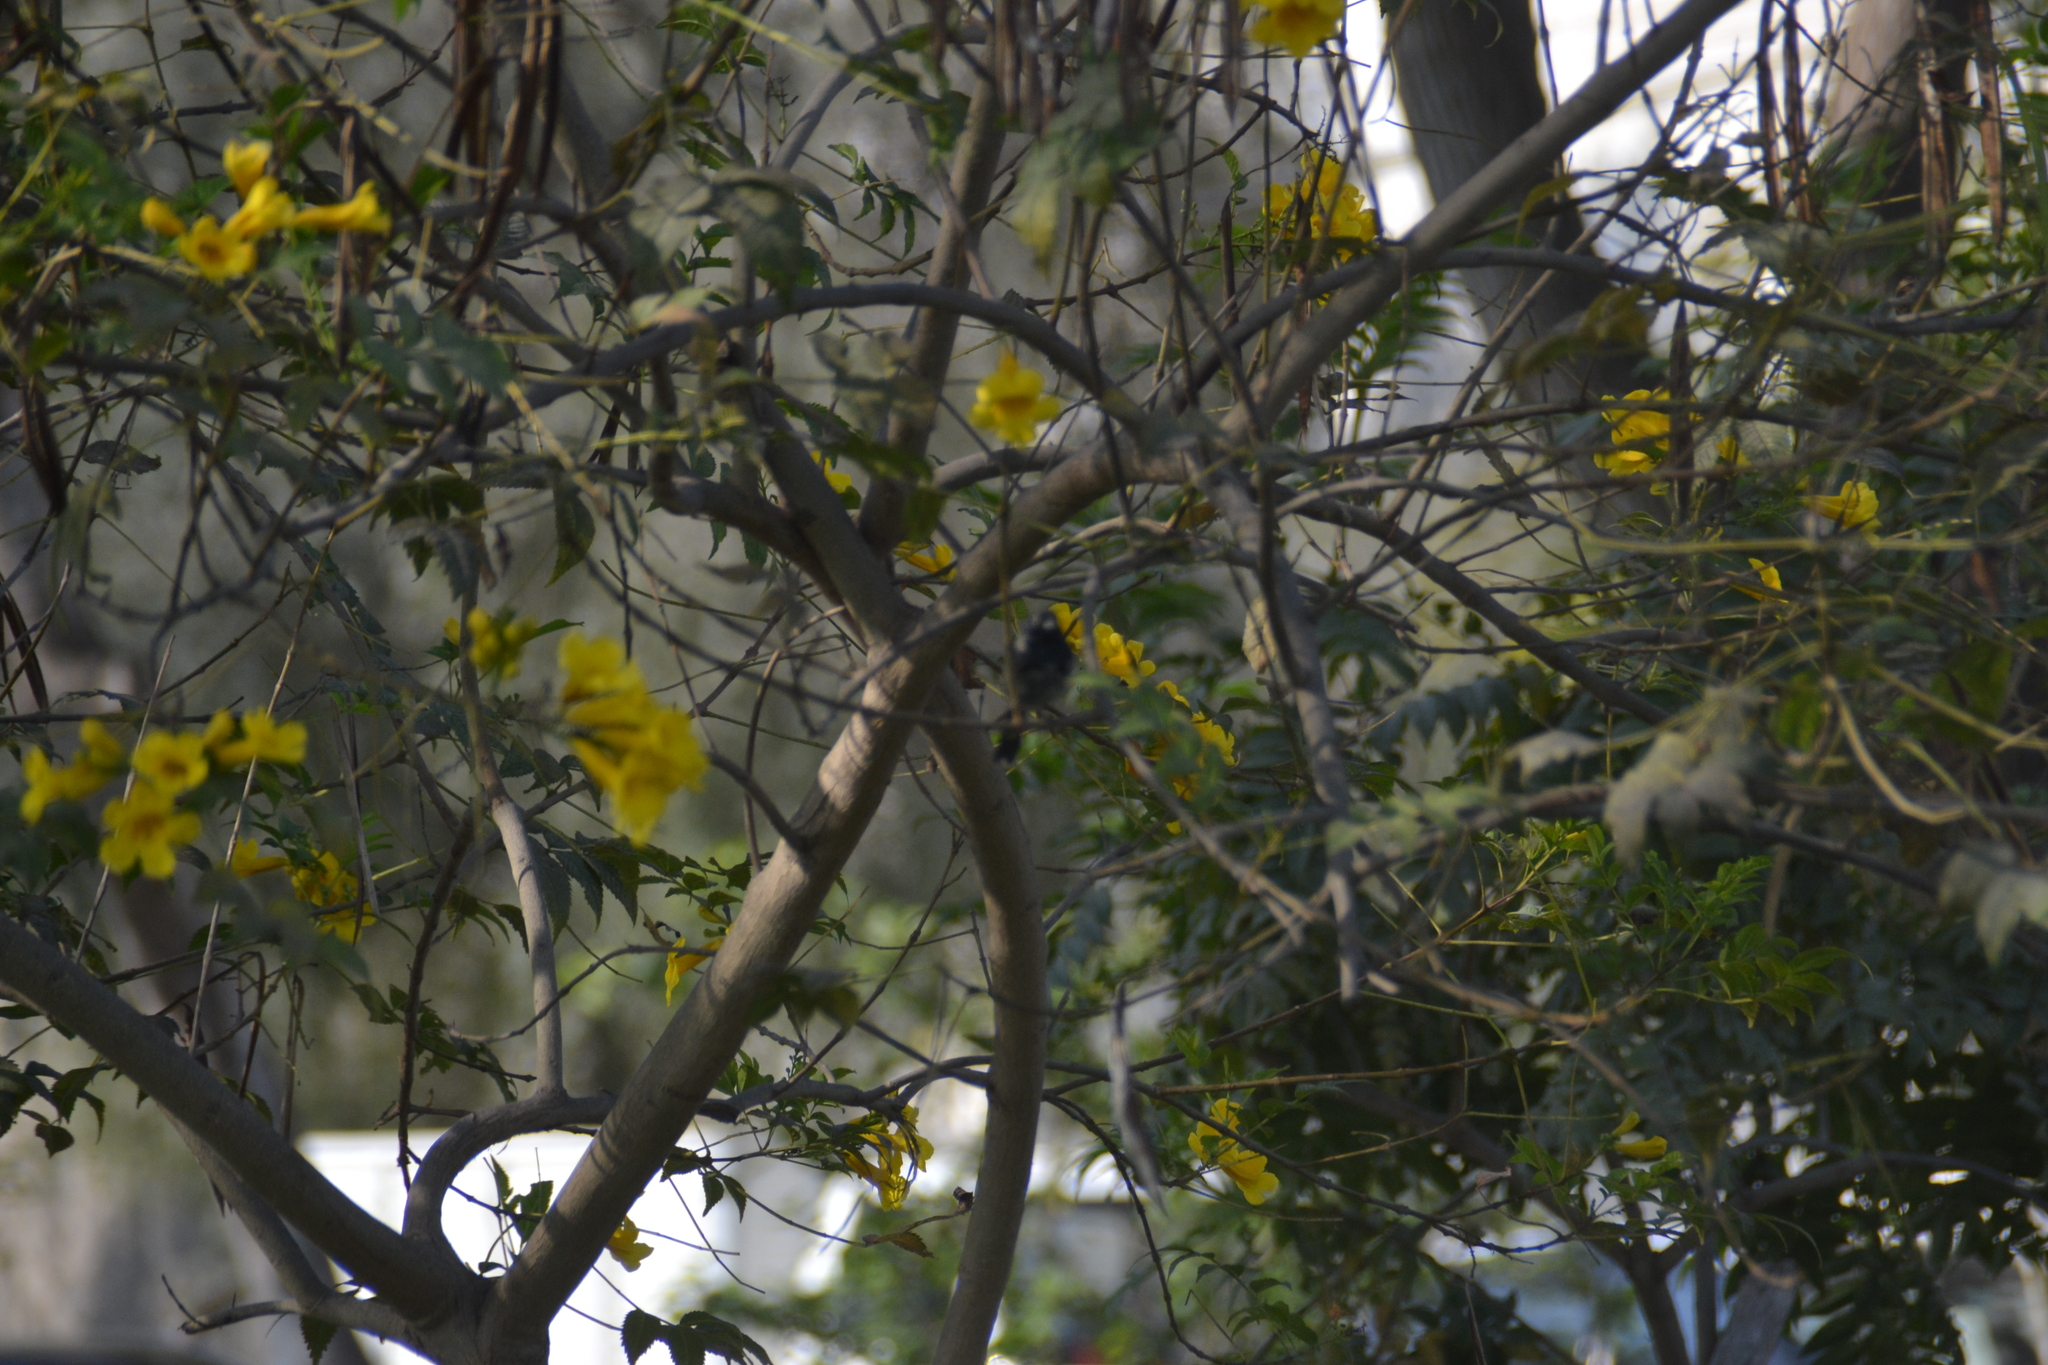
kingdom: Animalia
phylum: Chordata
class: Aves
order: Passeriformes
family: Thraupidae
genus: Volatinia
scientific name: Volatinia jacarina
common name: Blue-black grassquit
